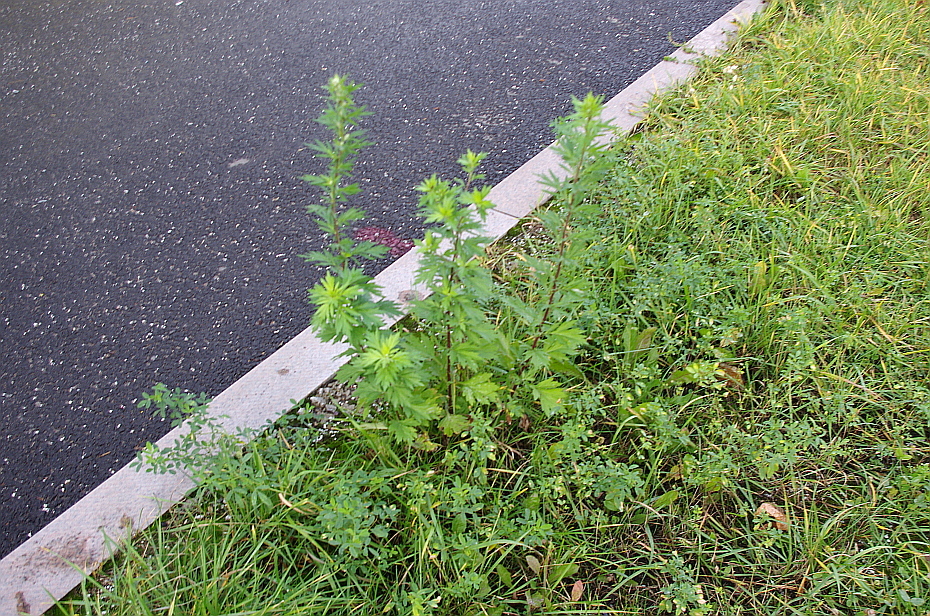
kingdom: Plantae
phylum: Tracheophyta
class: Magnoliopsida
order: Asterales
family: Asteraceae
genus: Artemisia
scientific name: Artemisia vulgaris
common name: Mugwort
